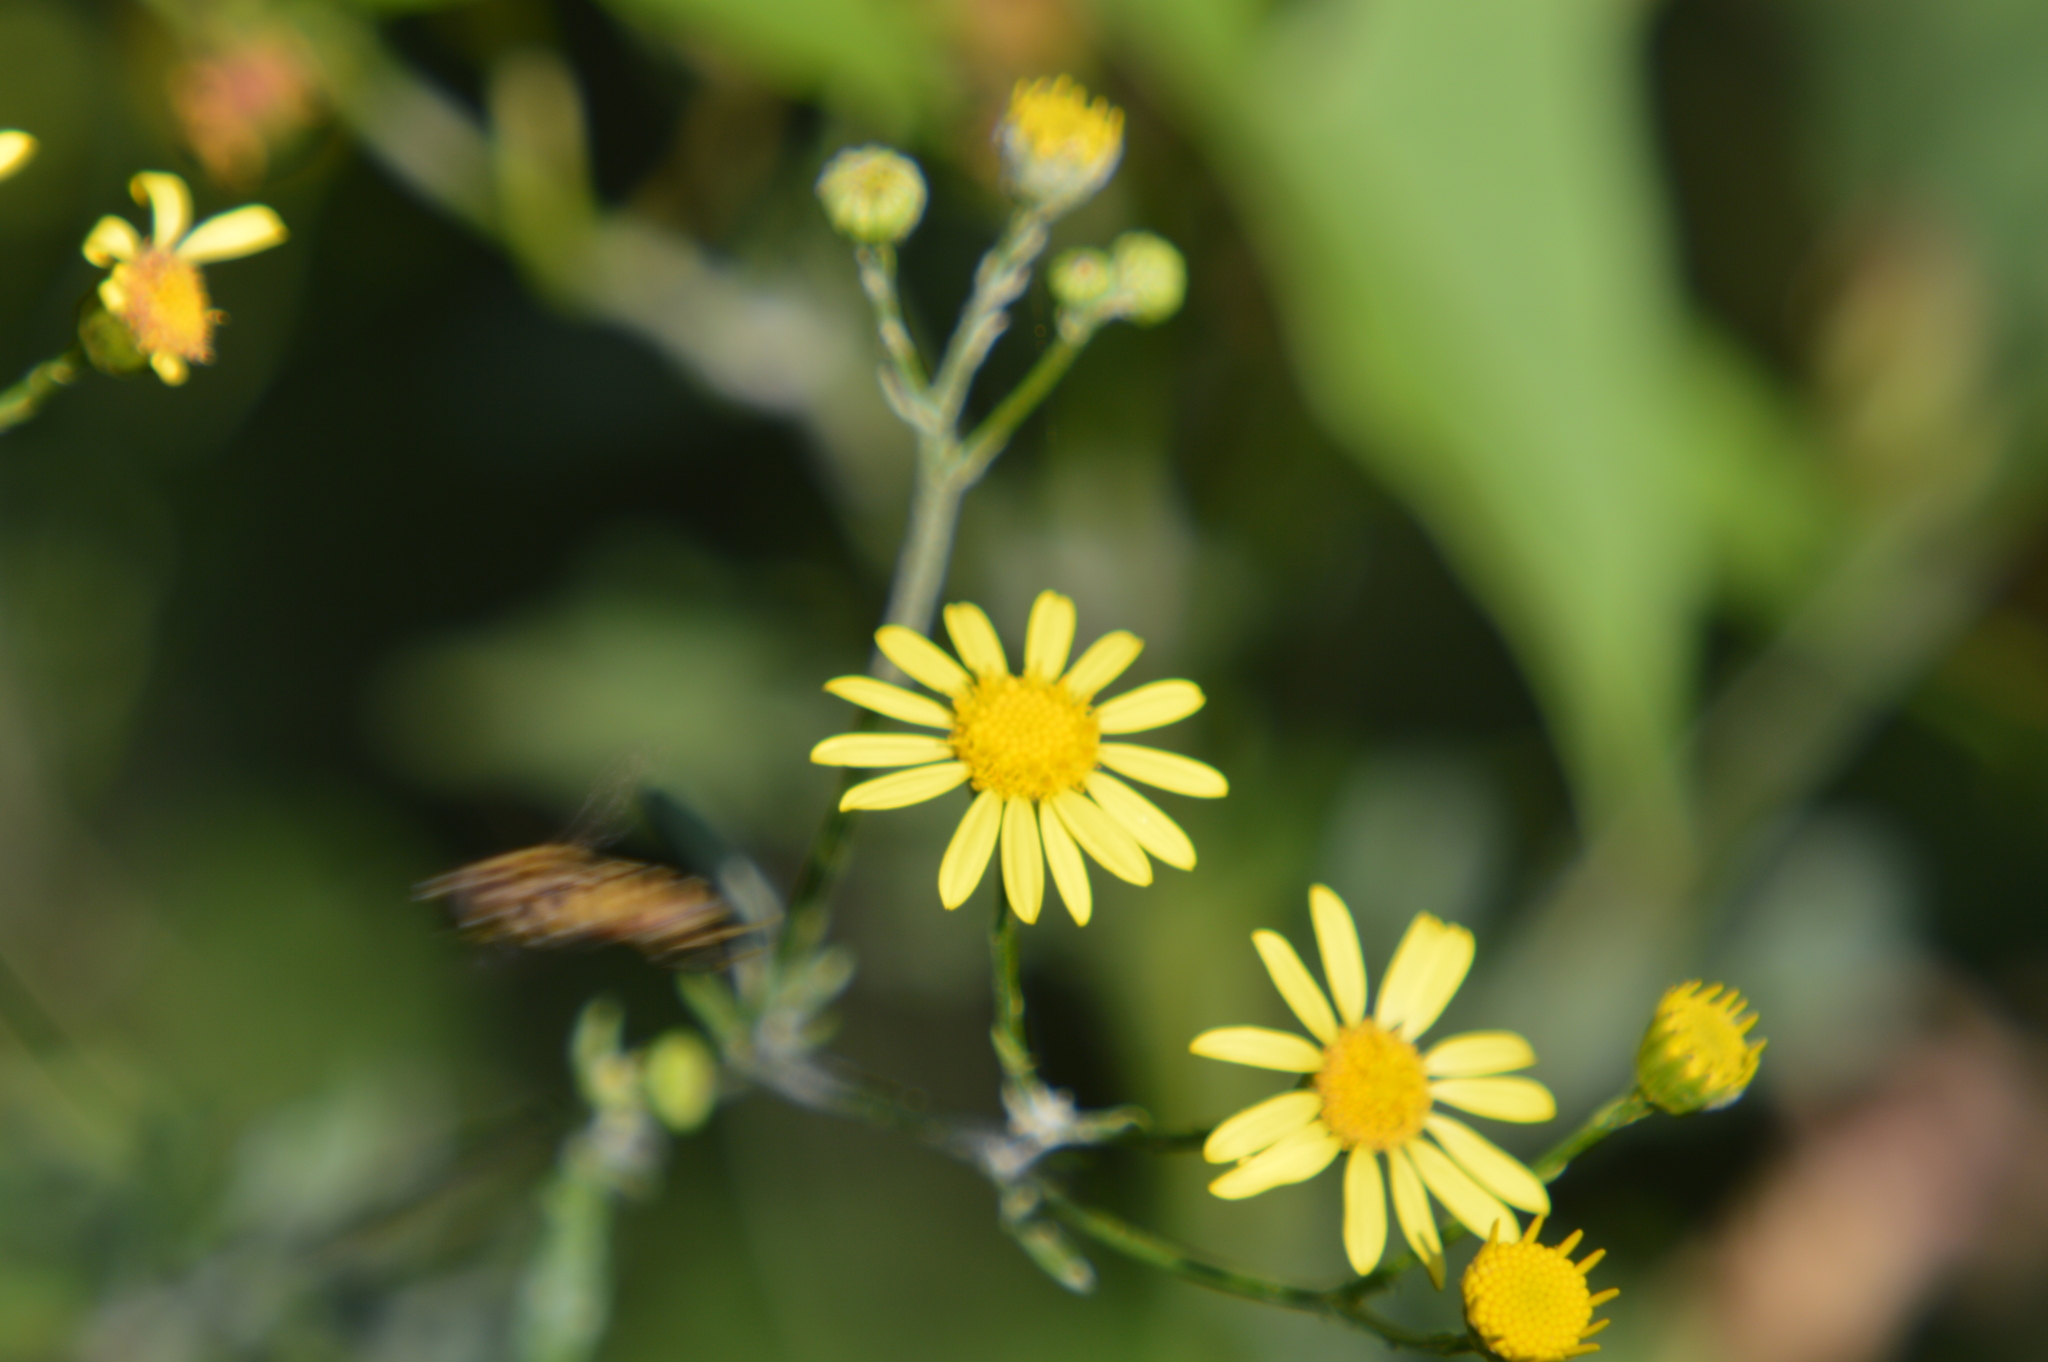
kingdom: Plantae
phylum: Tracheophyta
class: Magnoliopsida
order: Asterales
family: Asteraceae
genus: Jacobaea
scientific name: Jacobaea vulgaris
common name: Stinking willie
